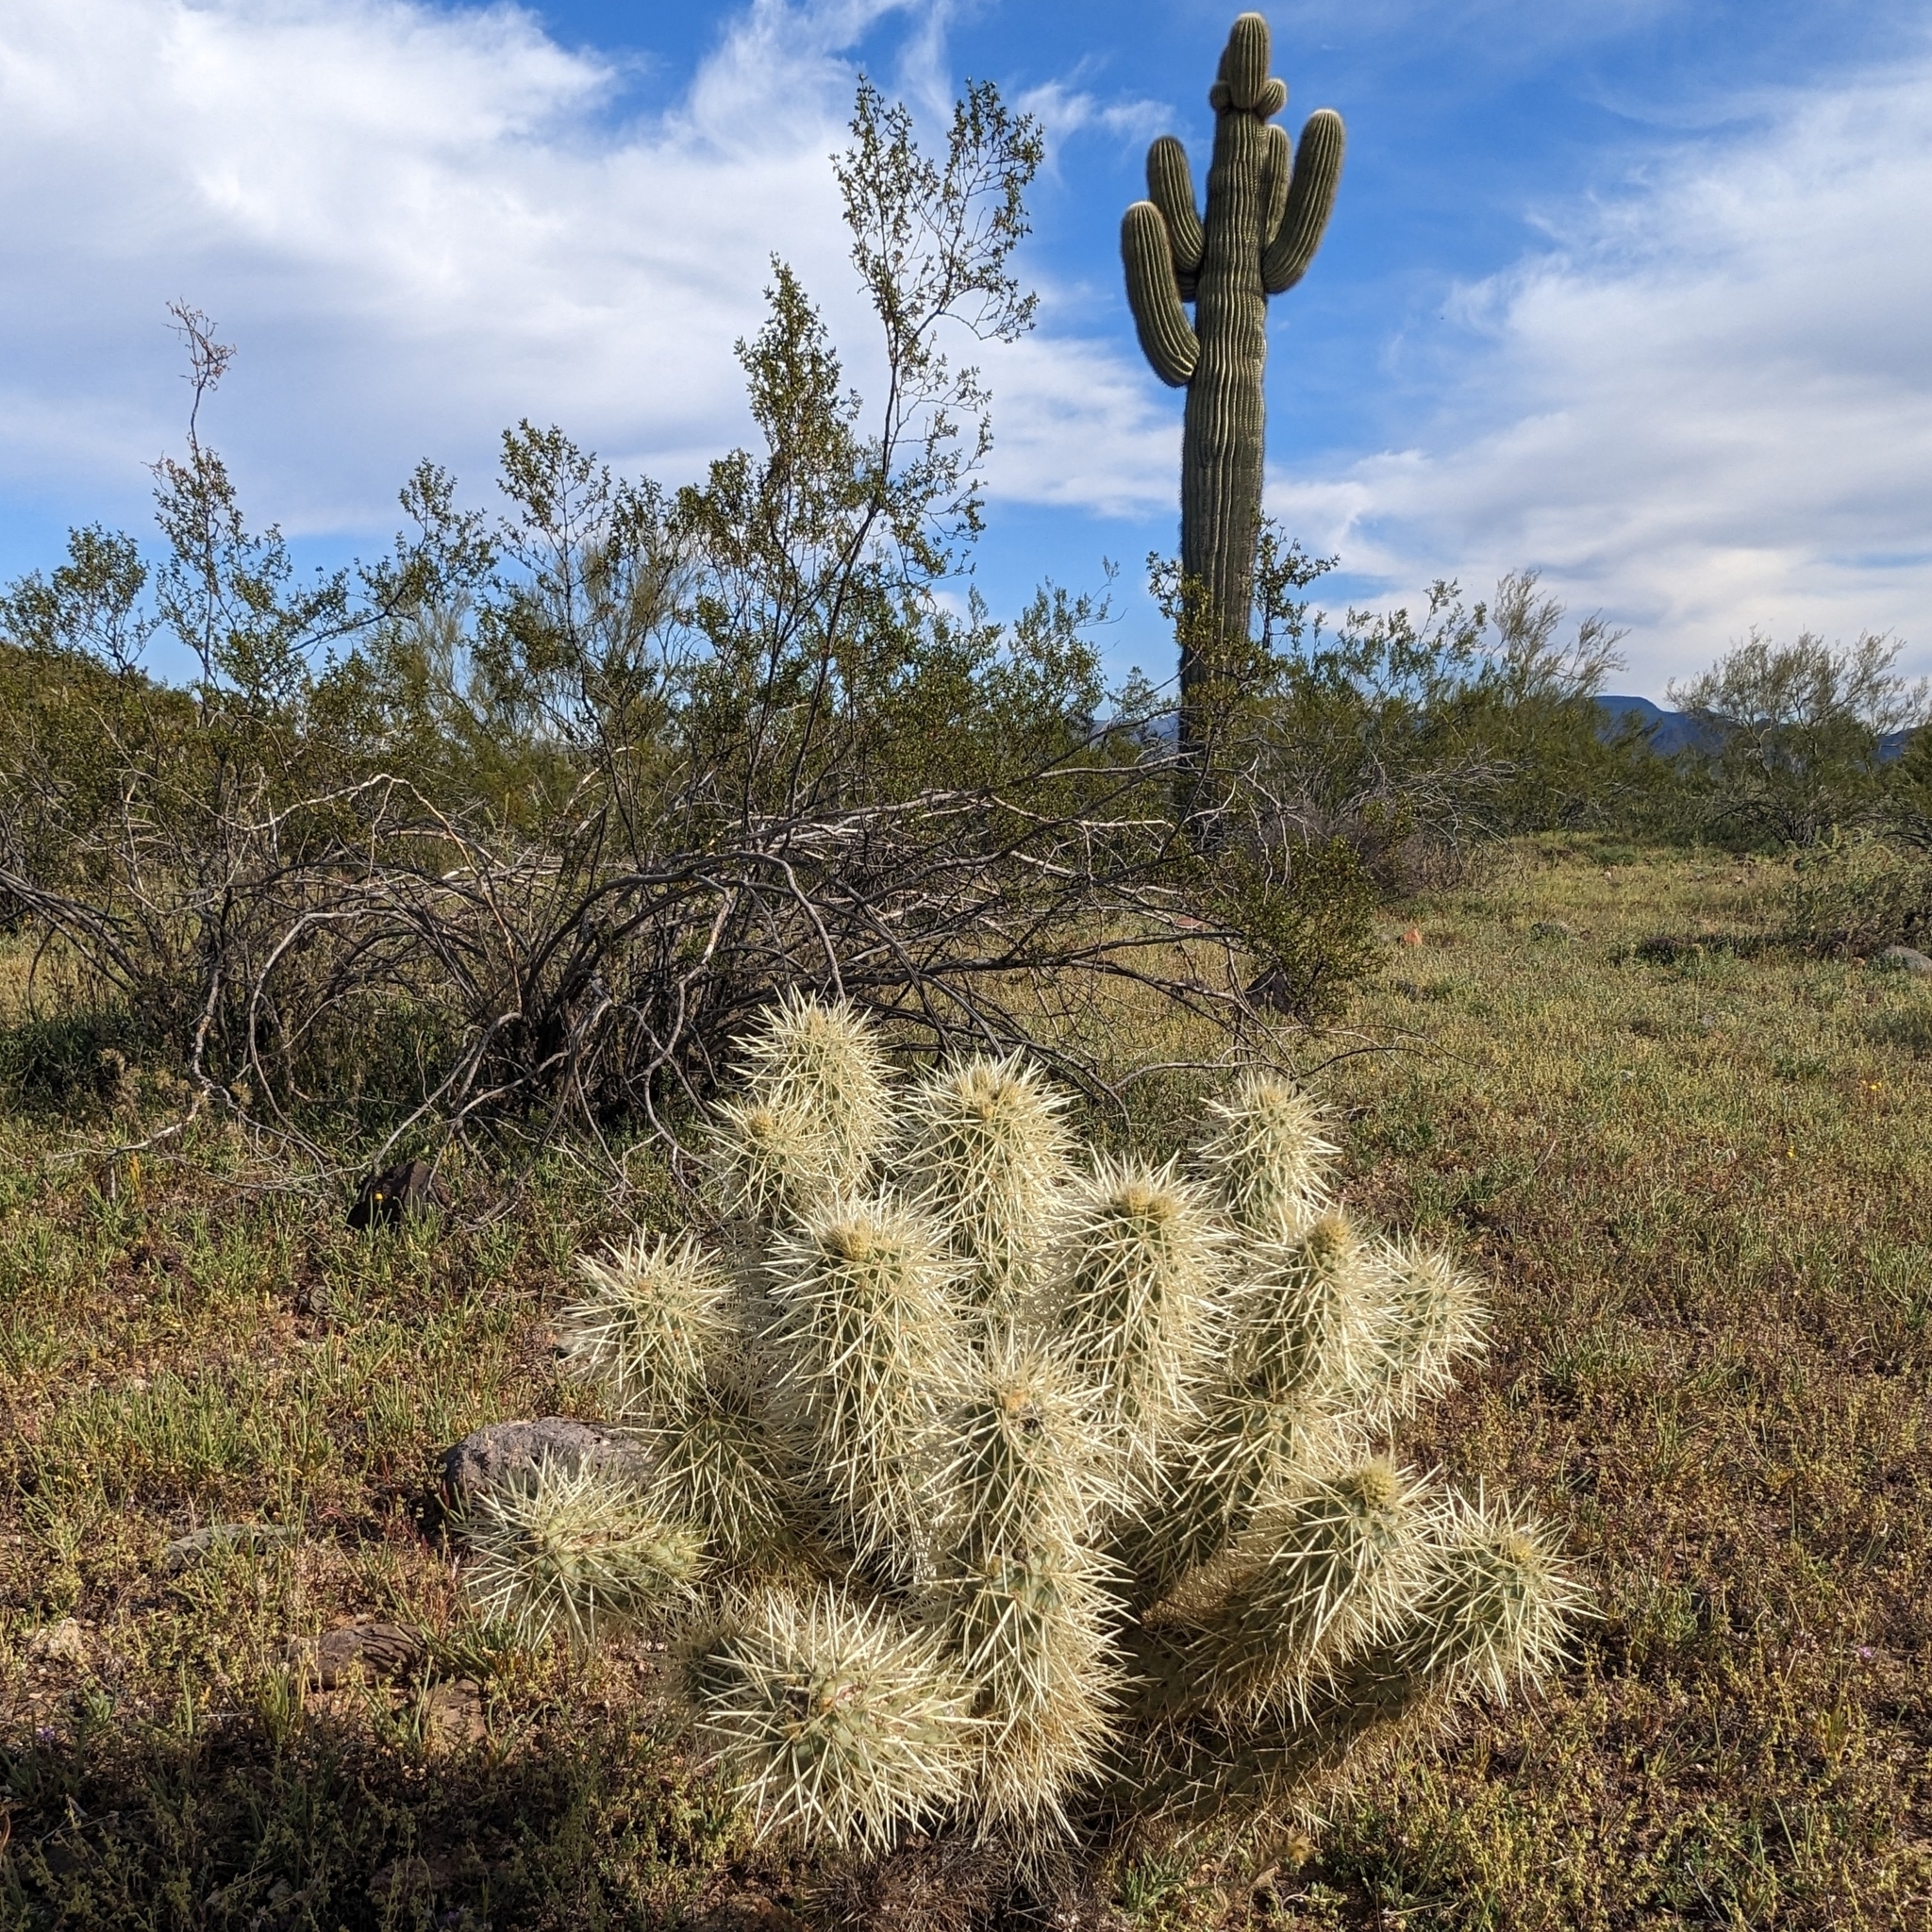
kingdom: Plantae
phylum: Tracheophyta
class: Magnoliopsida
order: Caryophyllales
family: Cactaceae
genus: Cylindropuntia
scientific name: Cylindropuntia fosbergii
